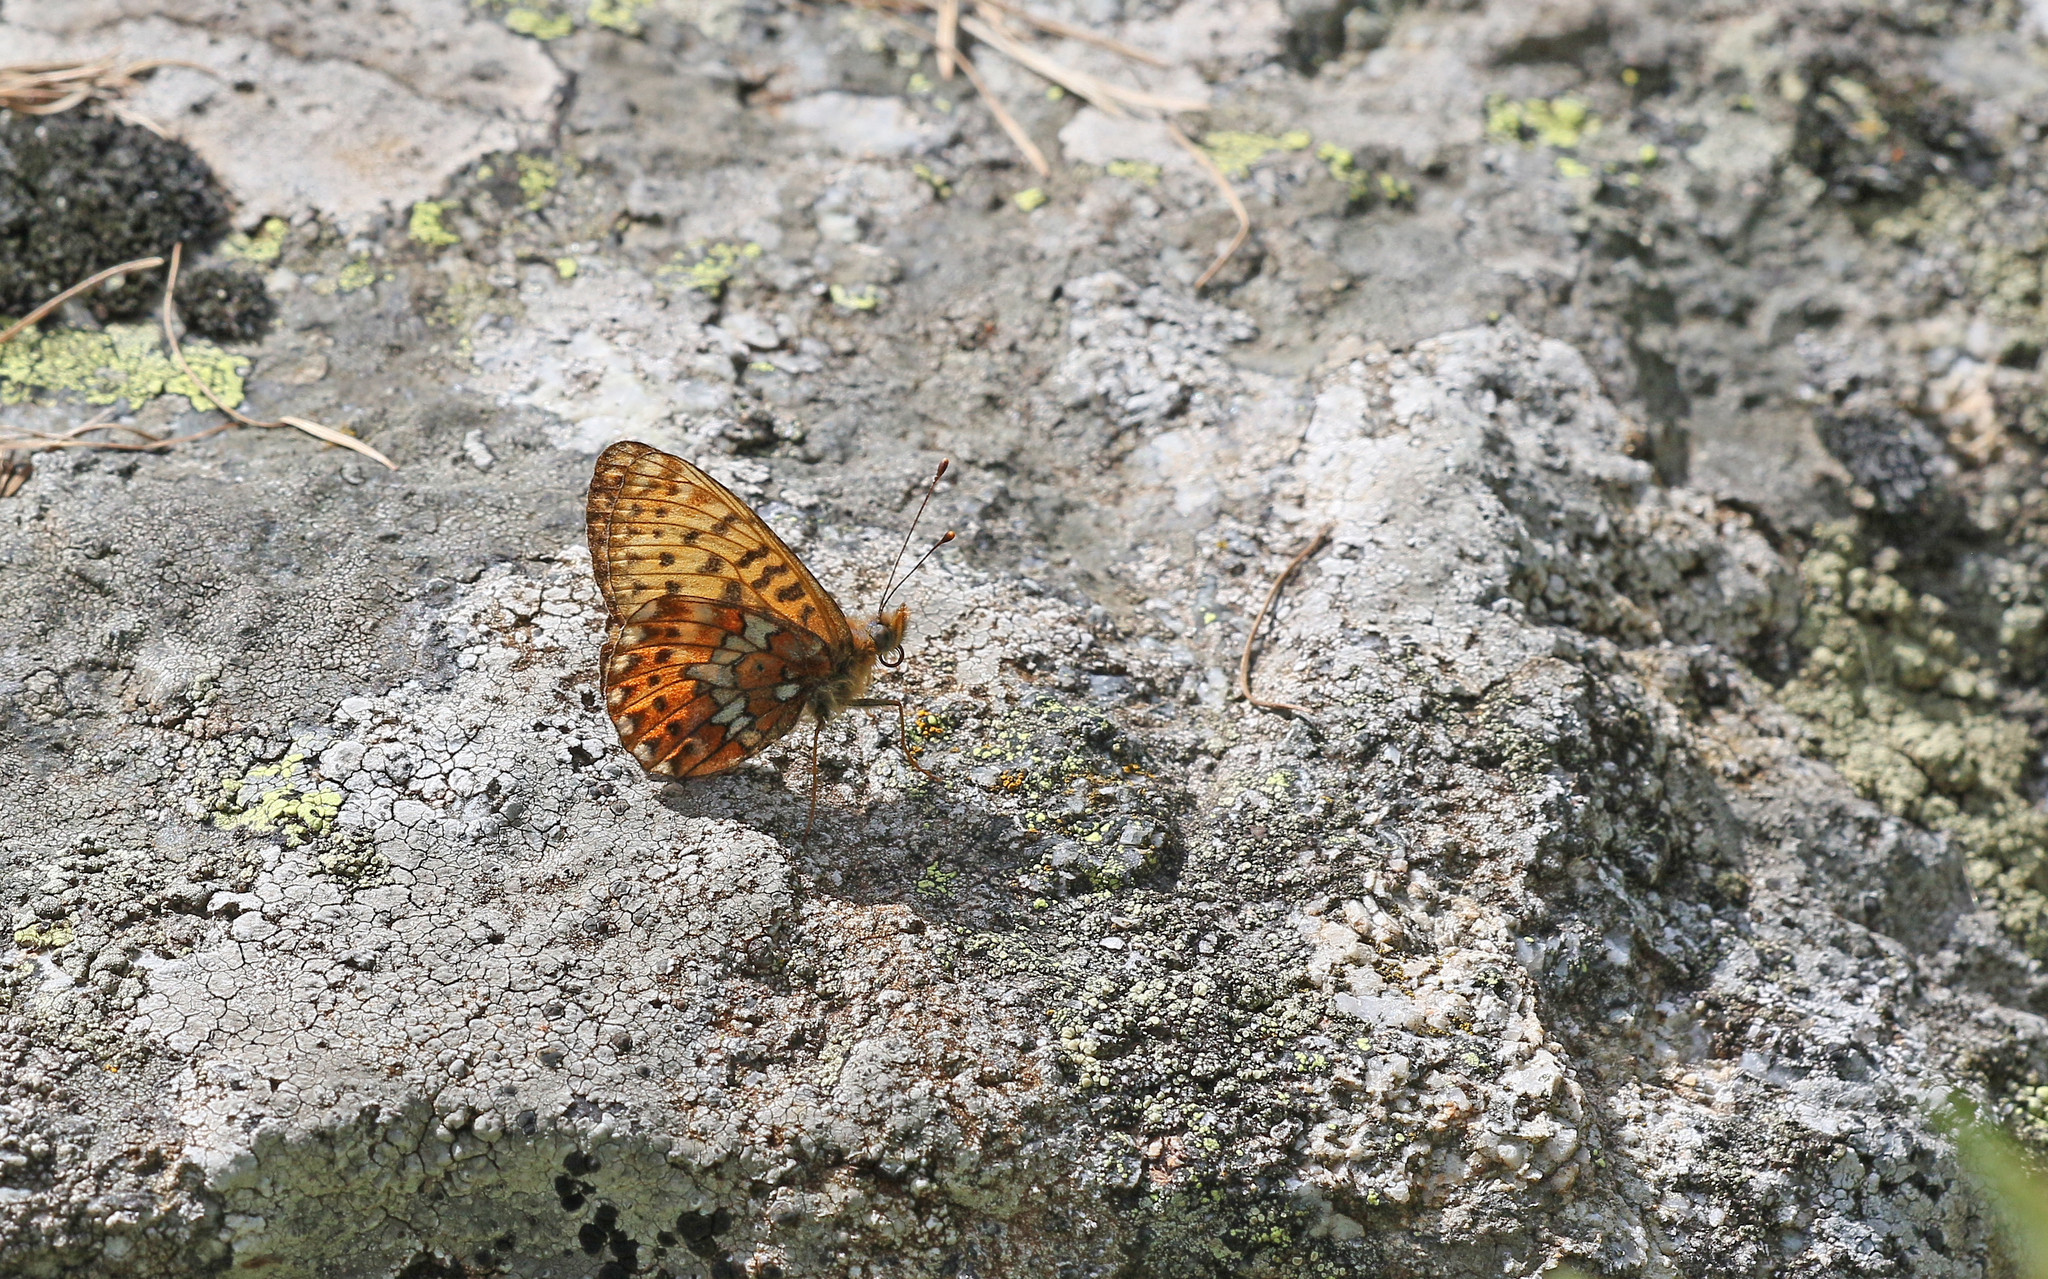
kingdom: Animalia
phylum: Arthropoda
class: Insecta
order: Lepidoptera
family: Nymphalidae
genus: Clossiana
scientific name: Clossiana euphrosyne
